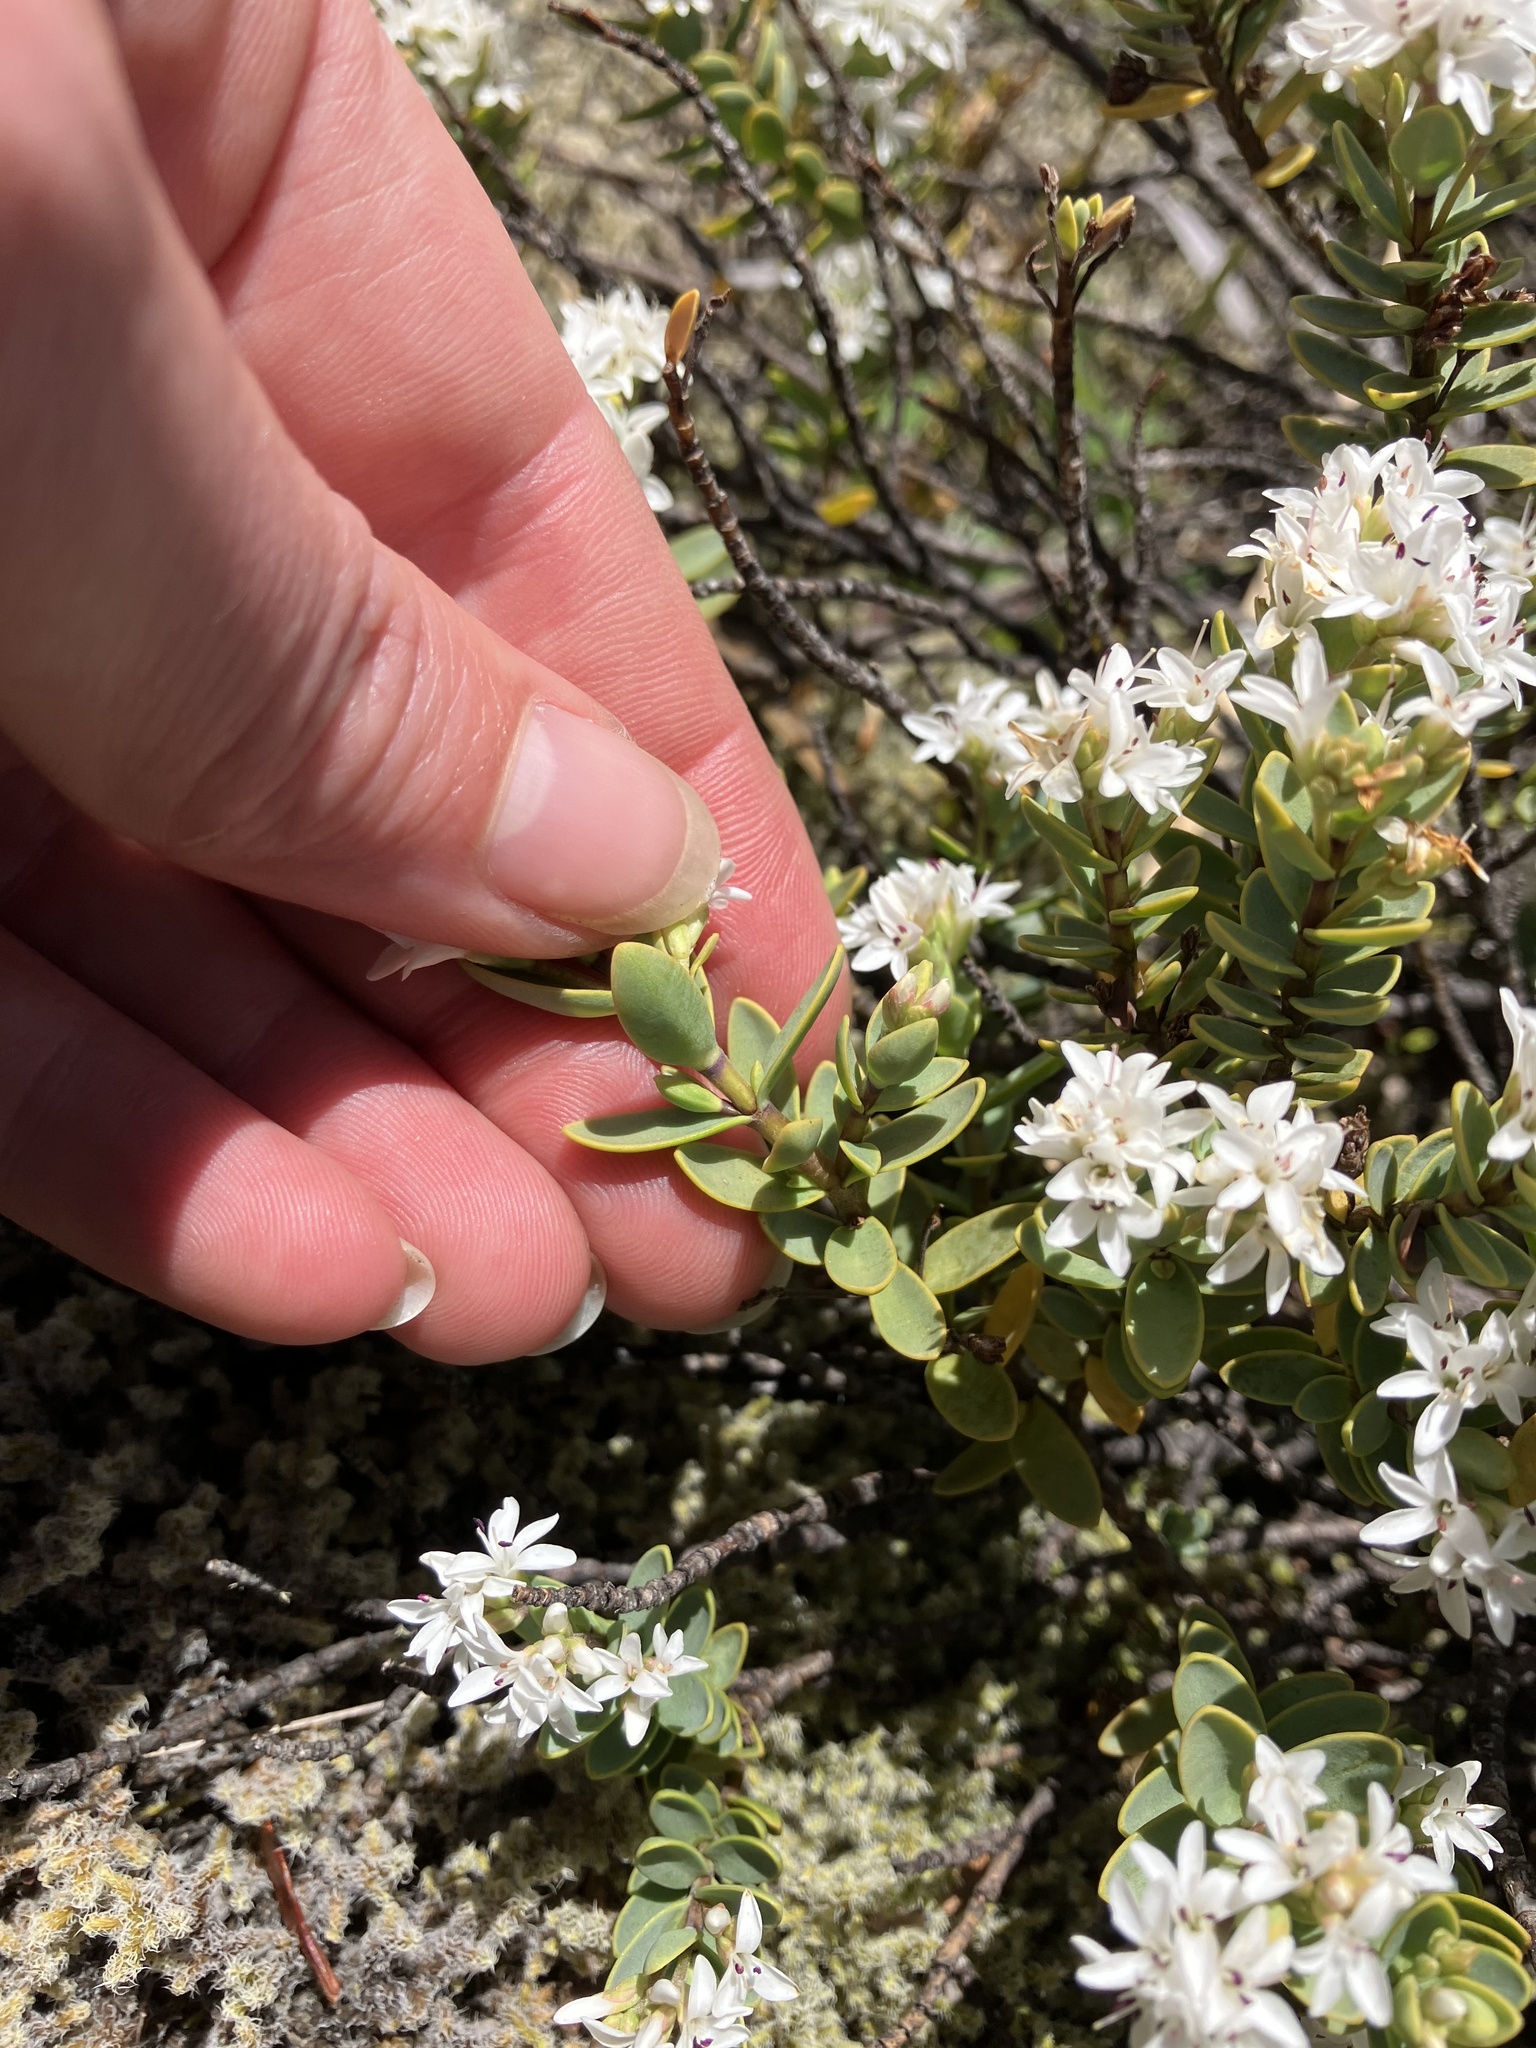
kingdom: Plantae
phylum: Tracheophyta
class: Magnoliopsida
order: Lamiales
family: Plantaginaceae
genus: Veronica
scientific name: Veronica pinguifolia
